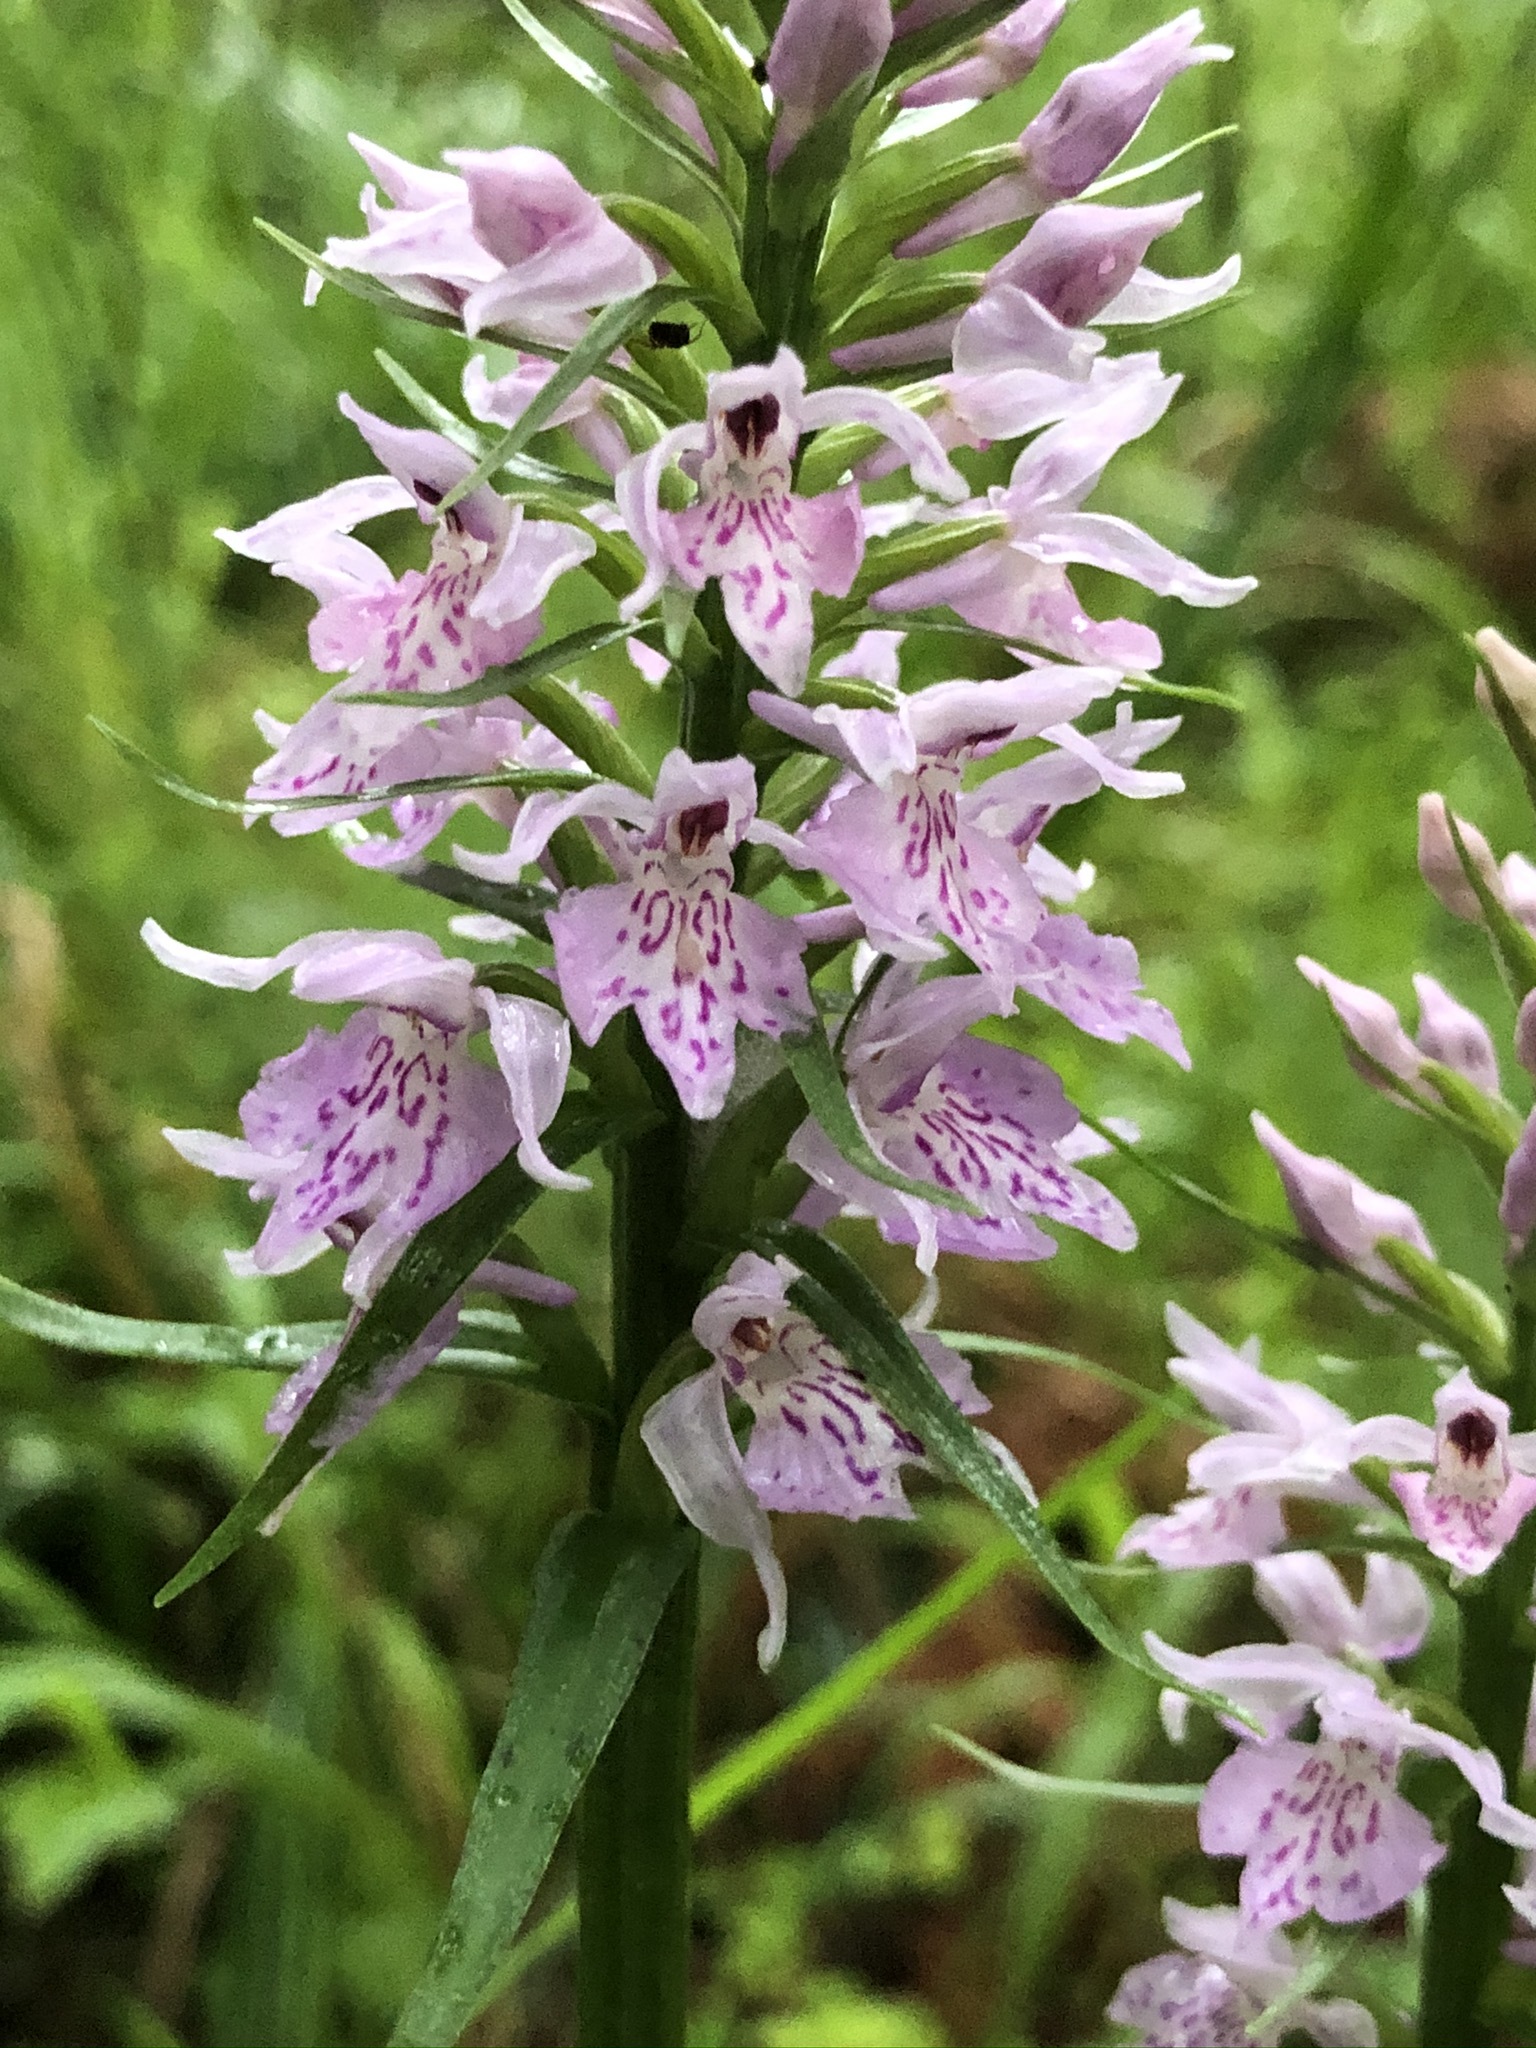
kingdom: Plantae
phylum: Tracheophyta
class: Liliopsida
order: Asparagales
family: Orchidaceae
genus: Dactylorhiza
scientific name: Dactylorhiza maculata
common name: Heath spotted-orchid
